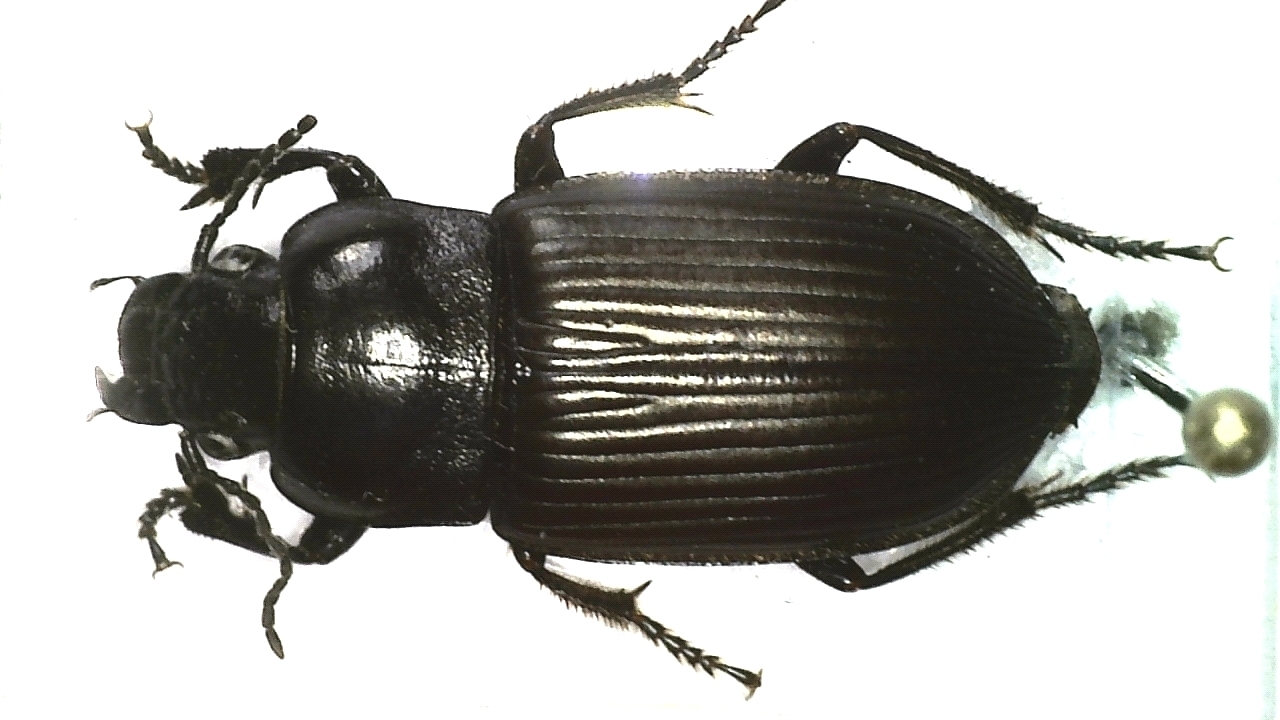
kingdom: Animalia
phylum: Arthropoda
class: Insecta
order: Coleoptera
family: Carabidae
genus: Anisodactylus
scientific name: Anisodactylus signatus
